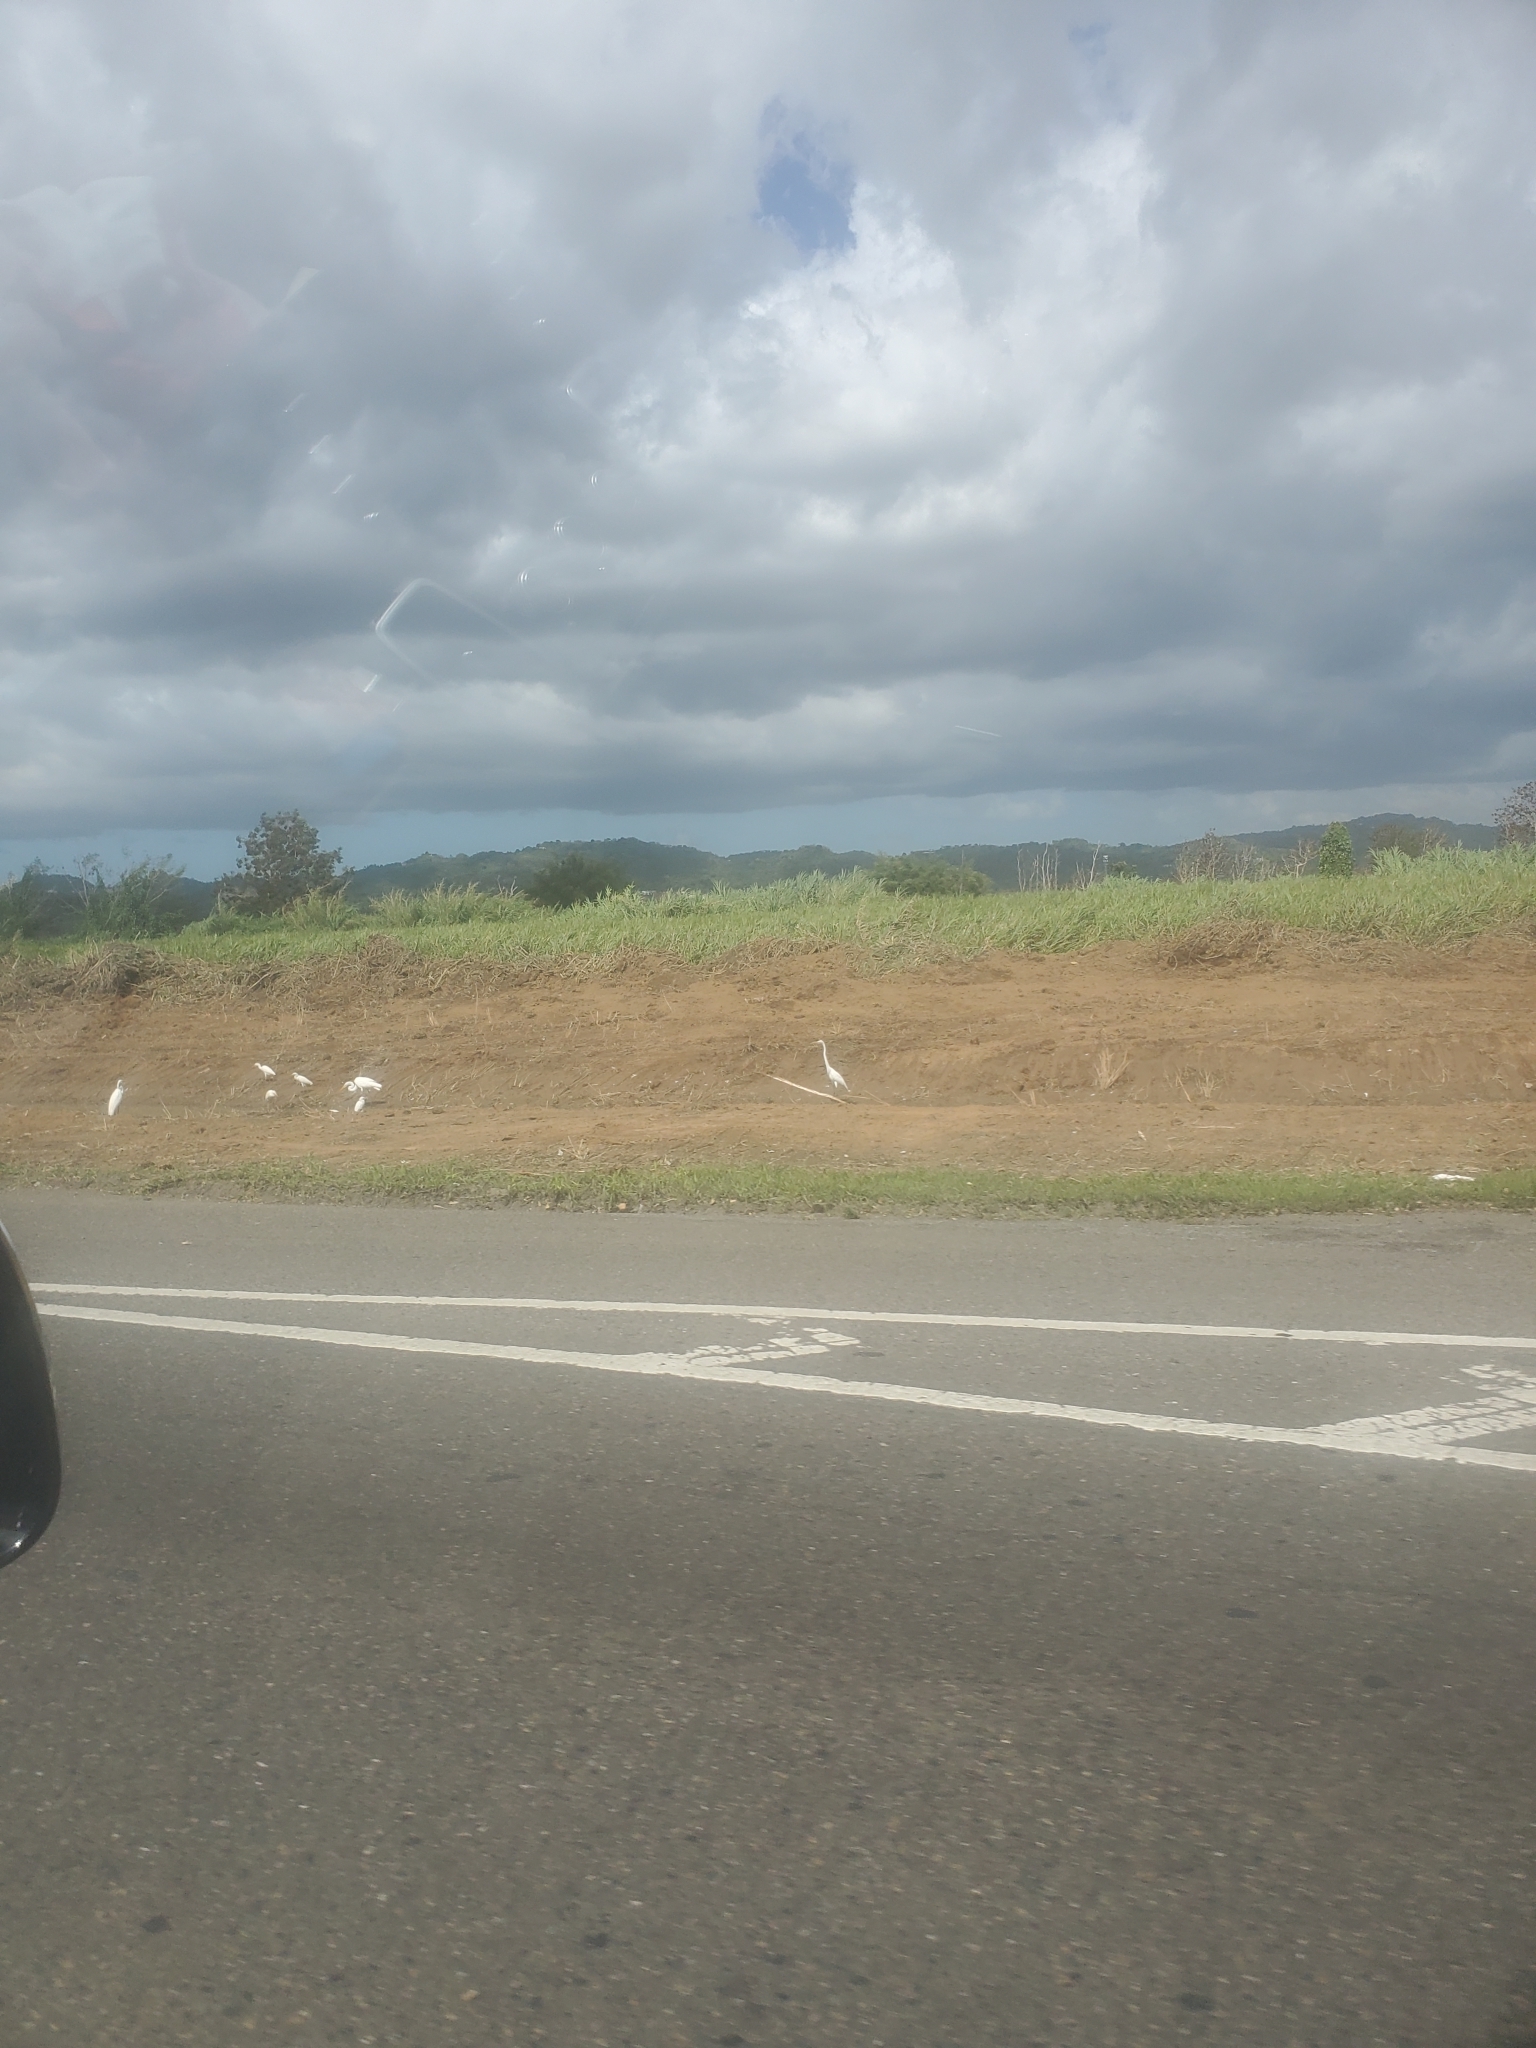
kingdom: Animalia
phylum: Chordata
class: Aves
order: Pelecaniformes
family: Ardeidae
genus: Ardea
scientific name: Ardea alba
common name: Great egret
